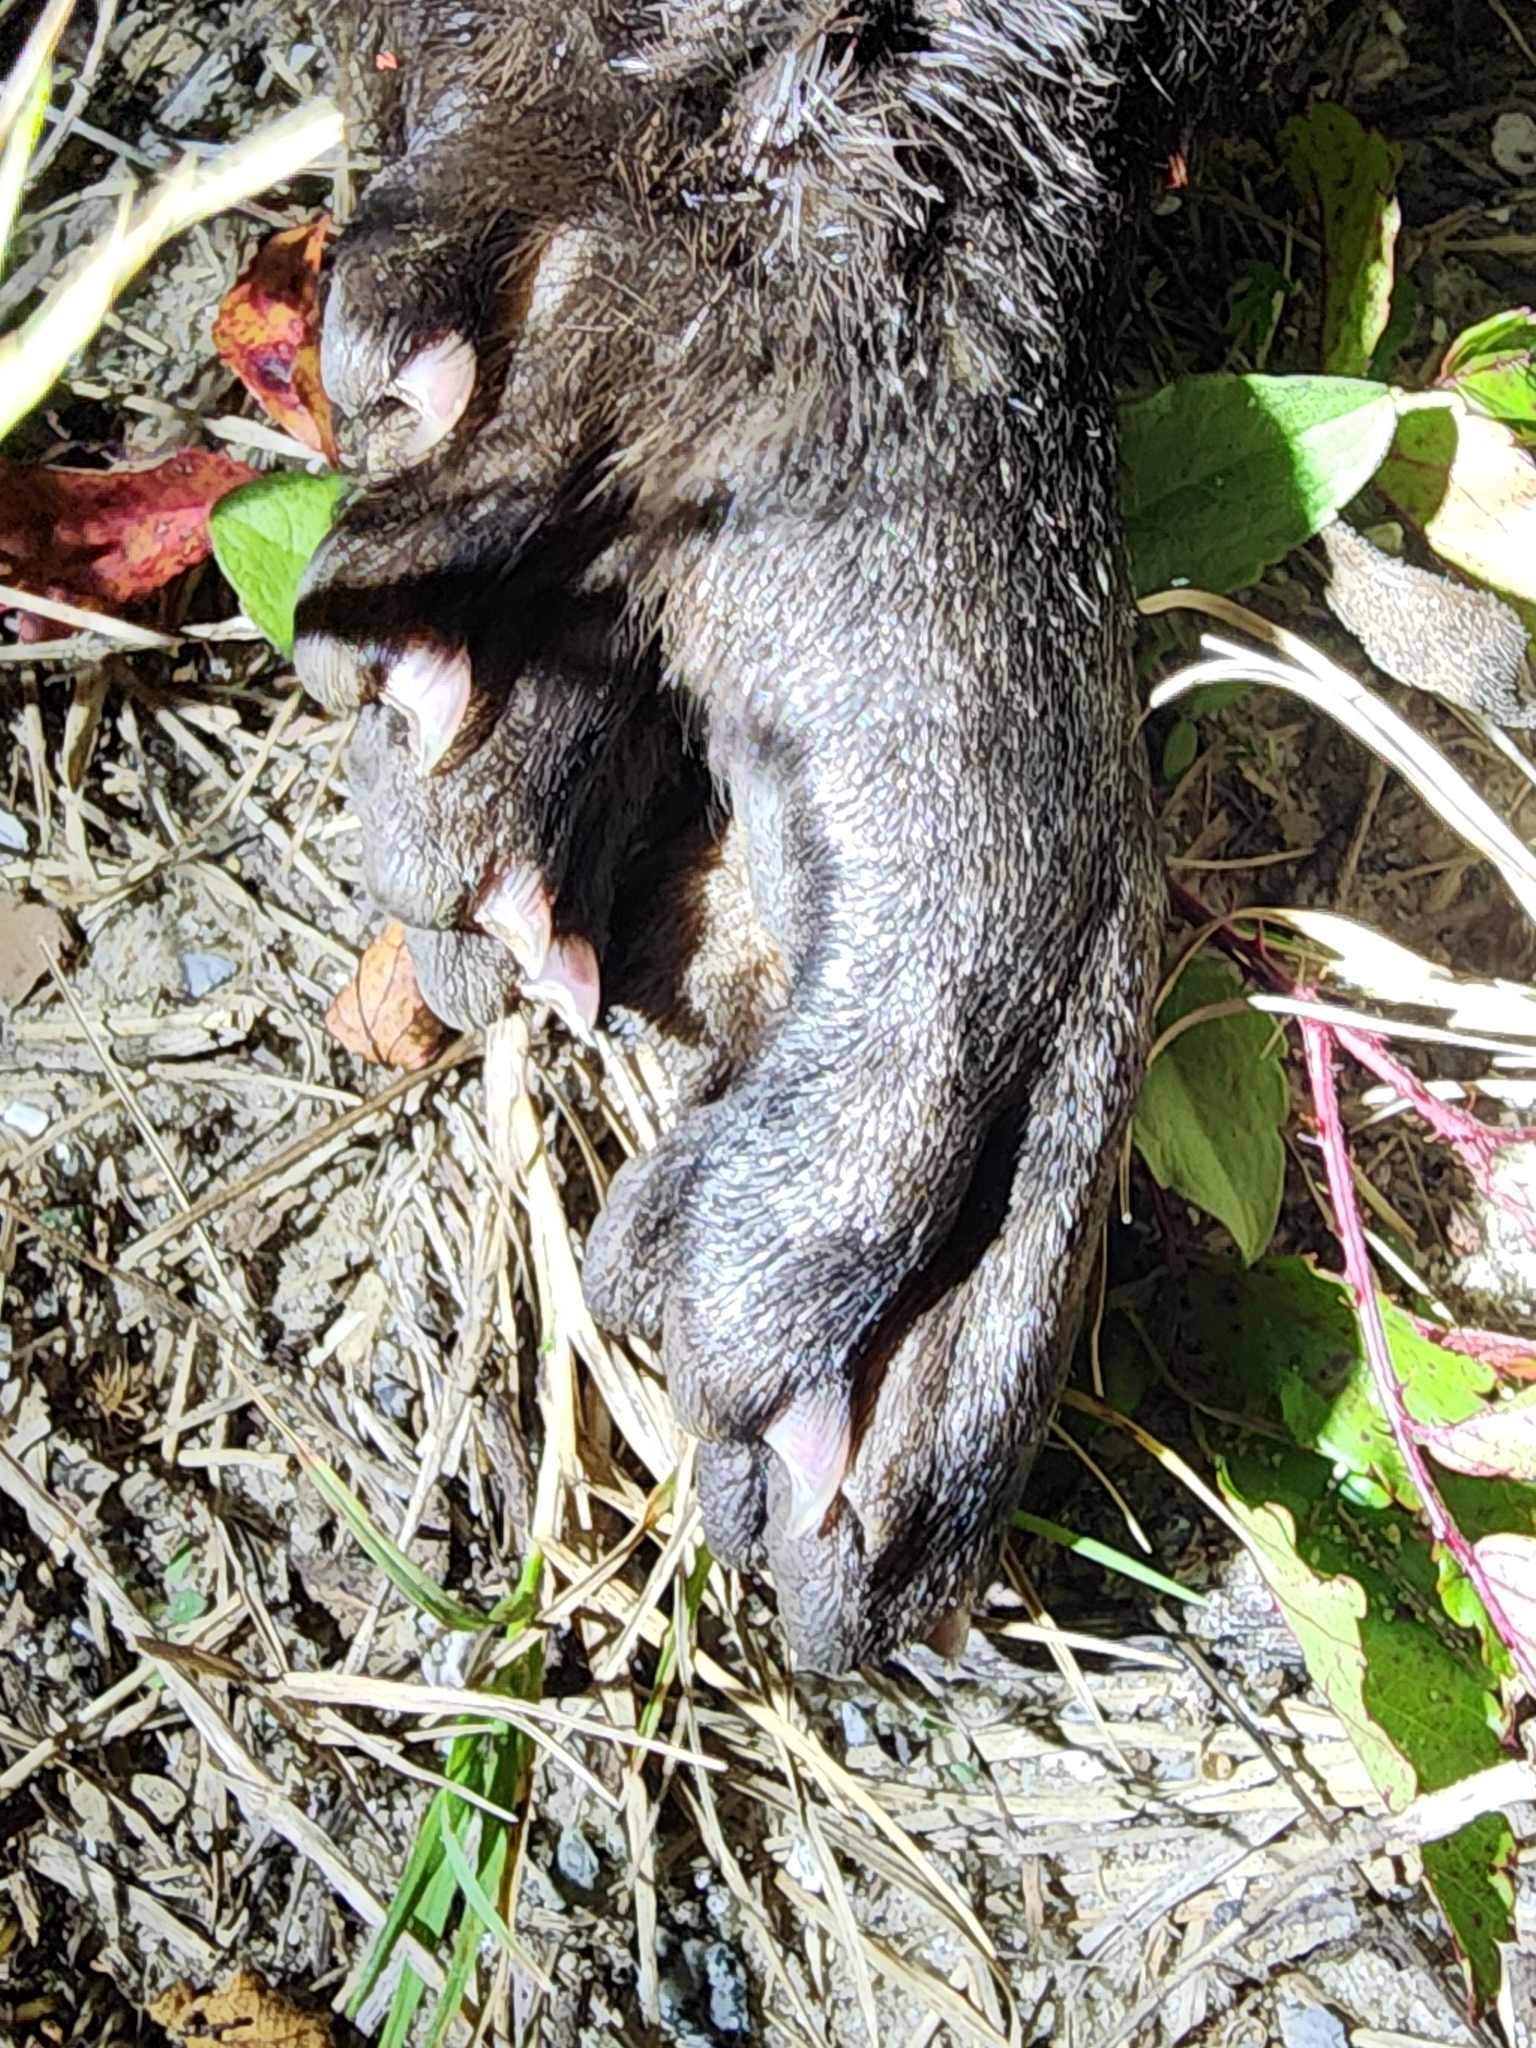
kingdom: Animalia
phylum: Chordata
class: Mammalia
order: Carnivora
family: Mustelidae
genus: Lontra
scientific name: Lontra canadensis
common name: North american river otter
